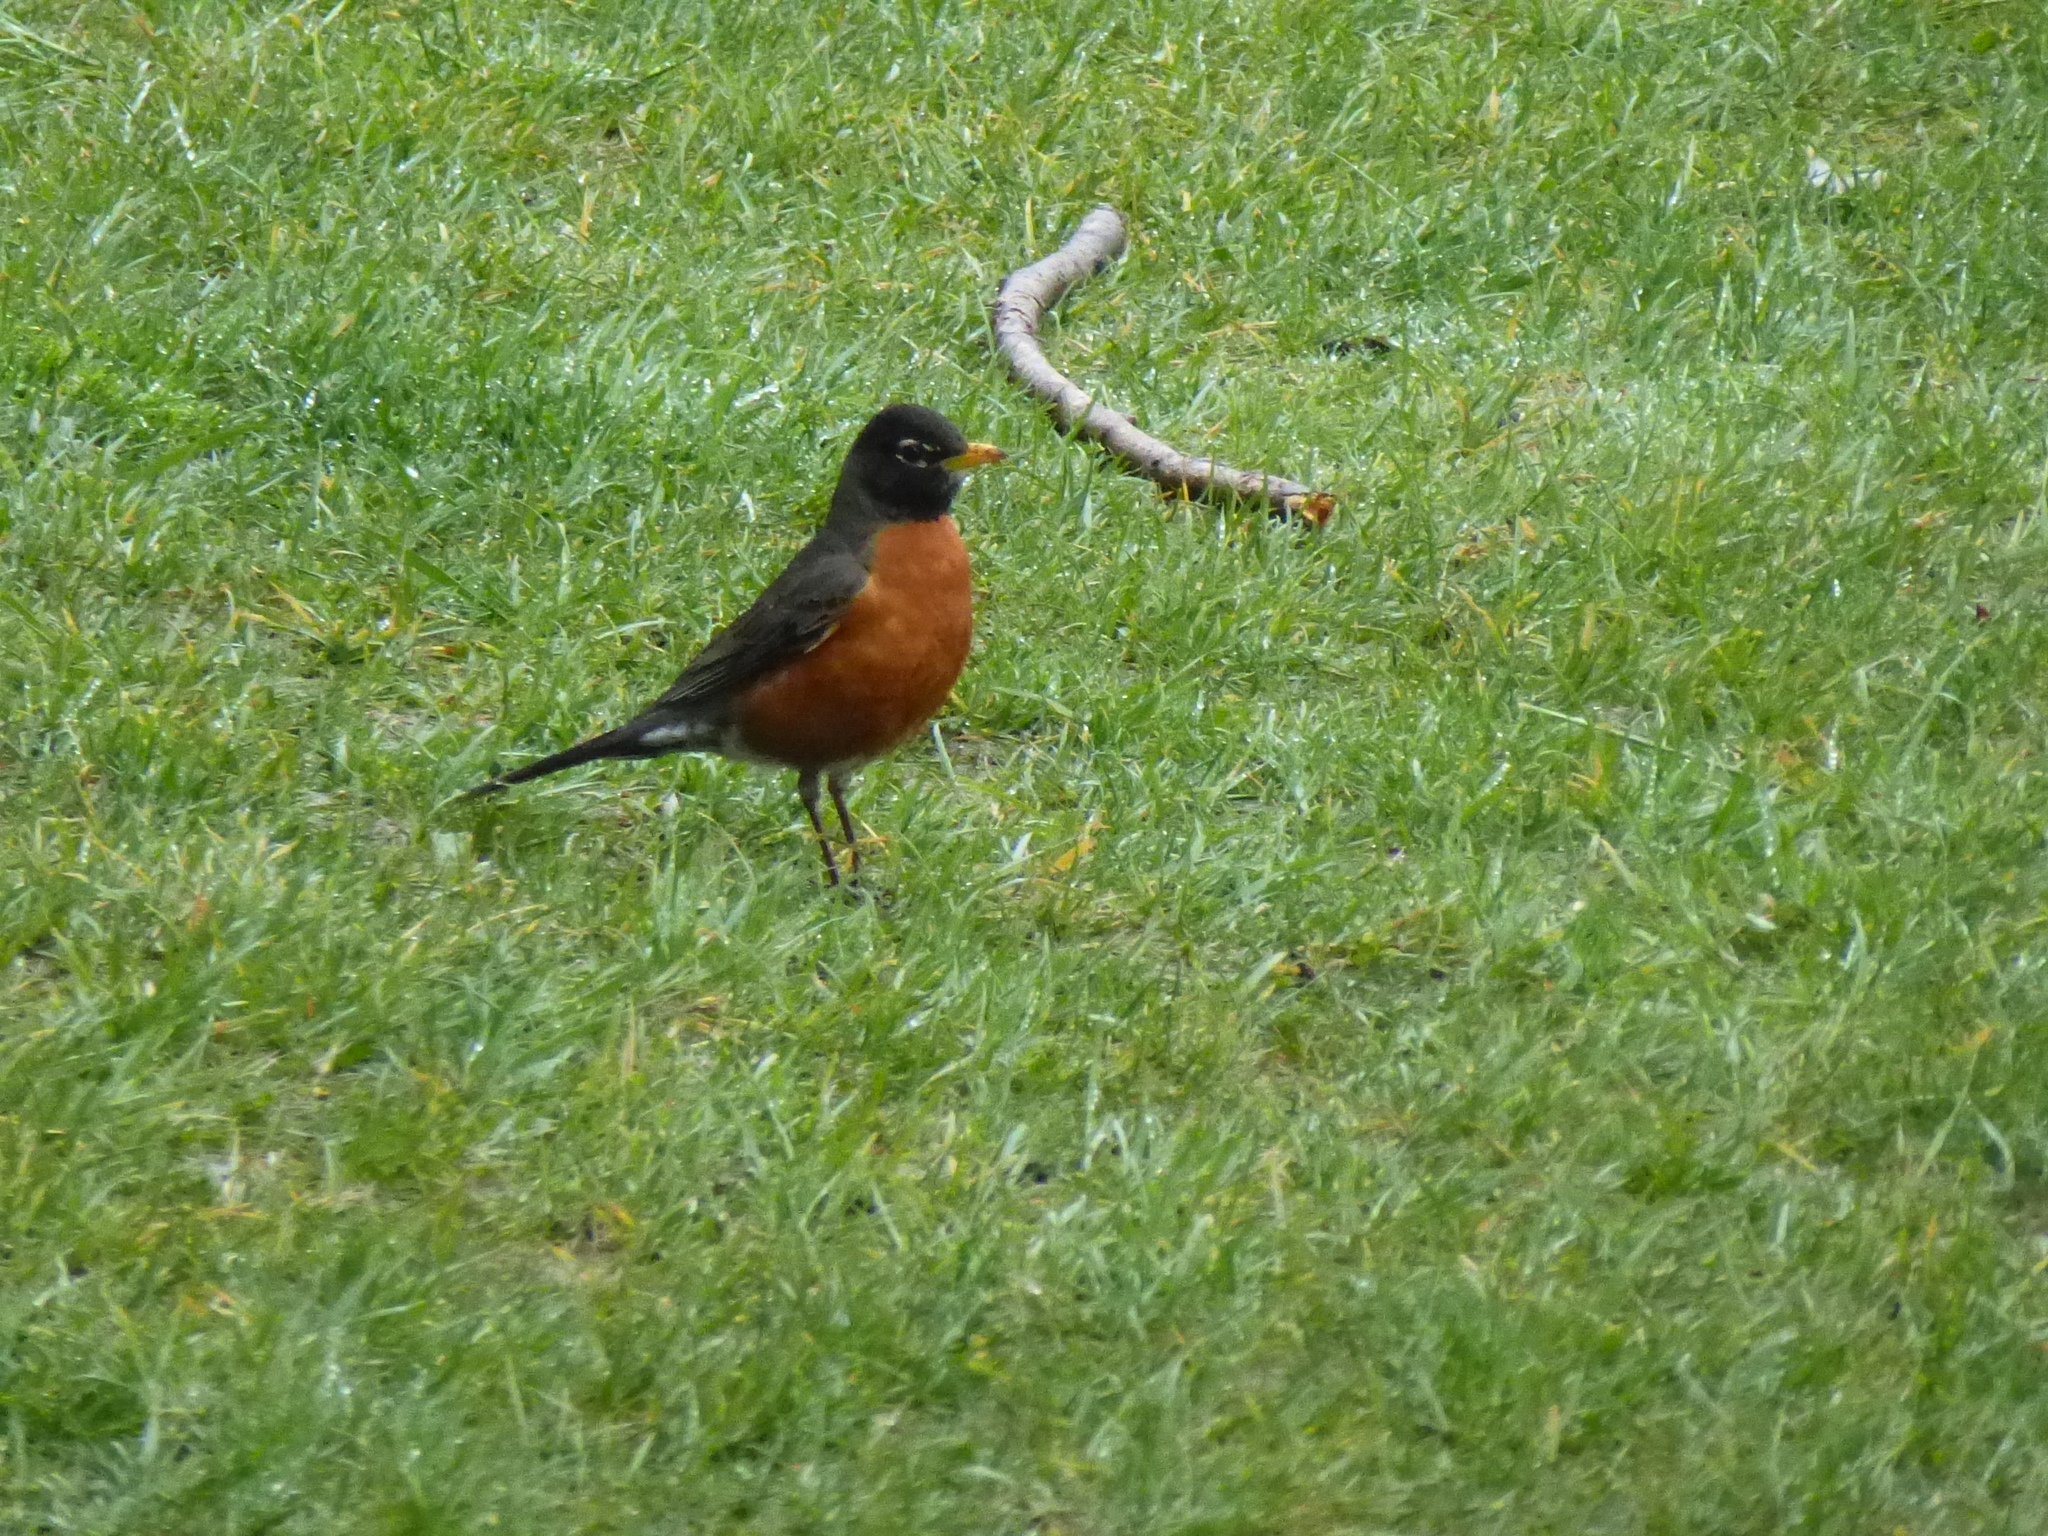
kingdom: Animalia
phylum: Chordata
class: Aves
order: Passeriformes
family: Turdidae
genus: Turdus
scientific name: Turdus migratorius
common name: American robin
